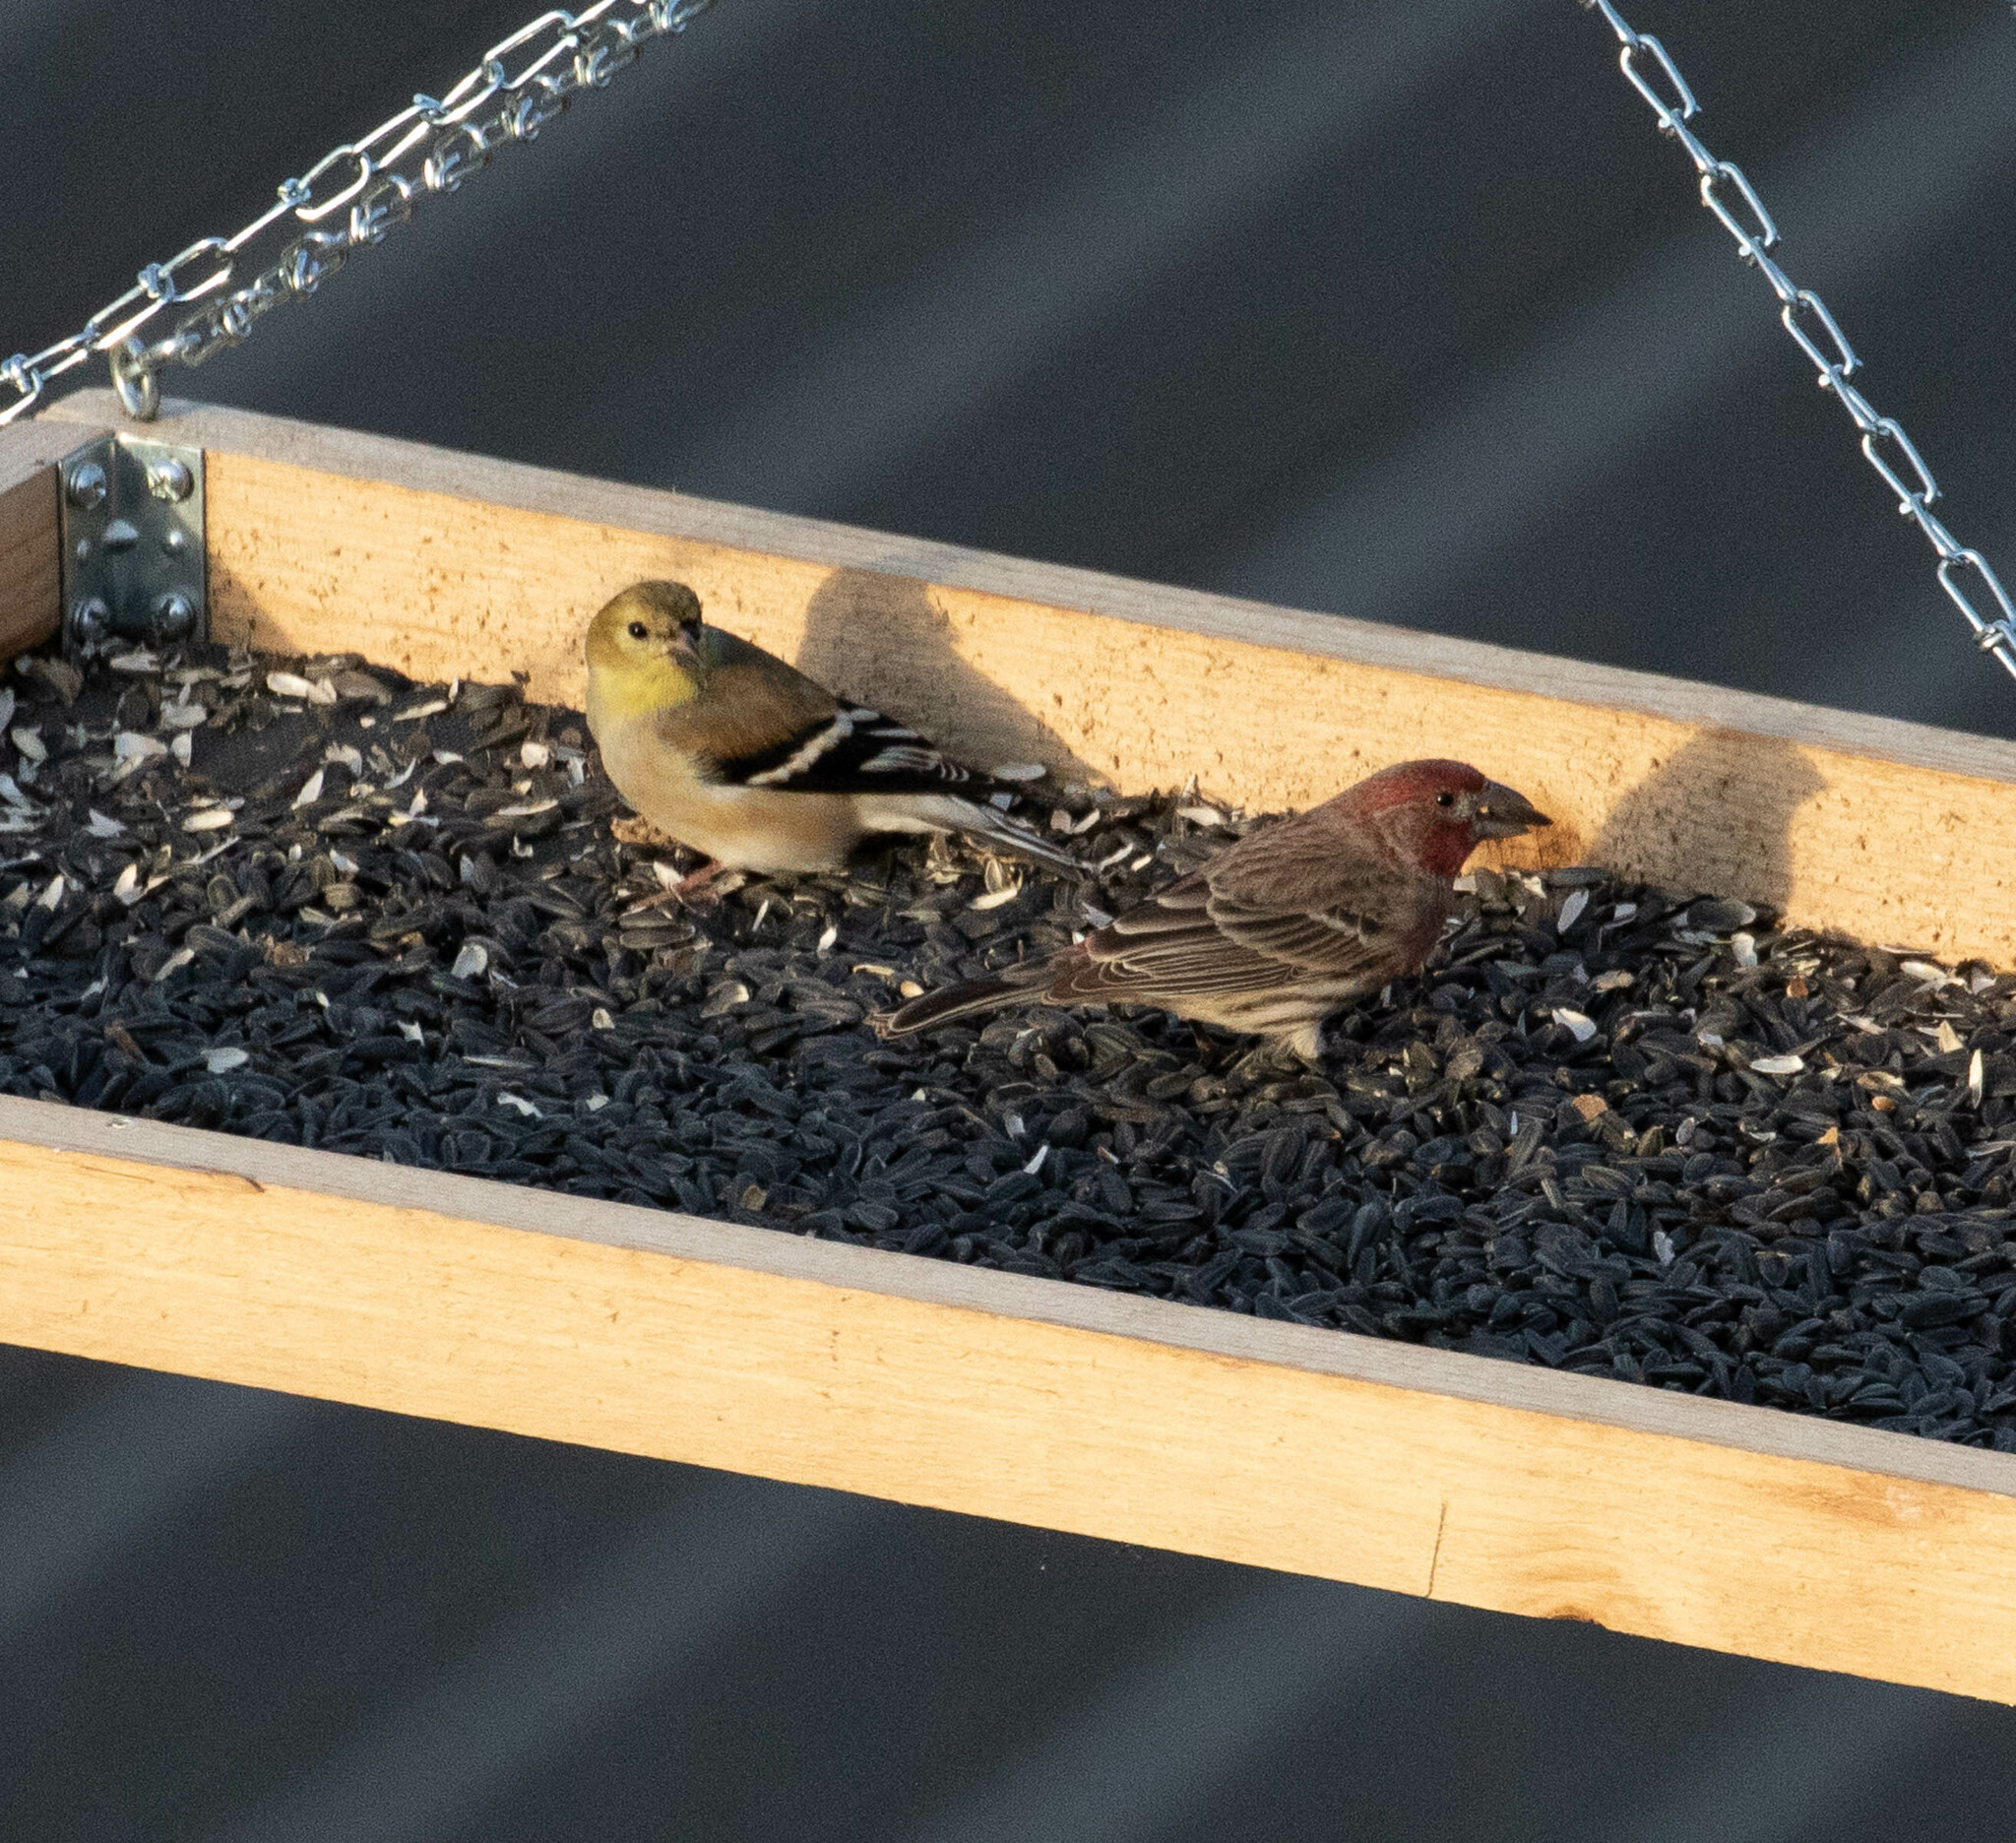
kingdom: Animalia
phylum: Chordata
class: Aves
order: Passeriformes
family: Fringillidae
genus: Haemorhous
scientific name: Haemorhous mexicanus
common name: House finch
